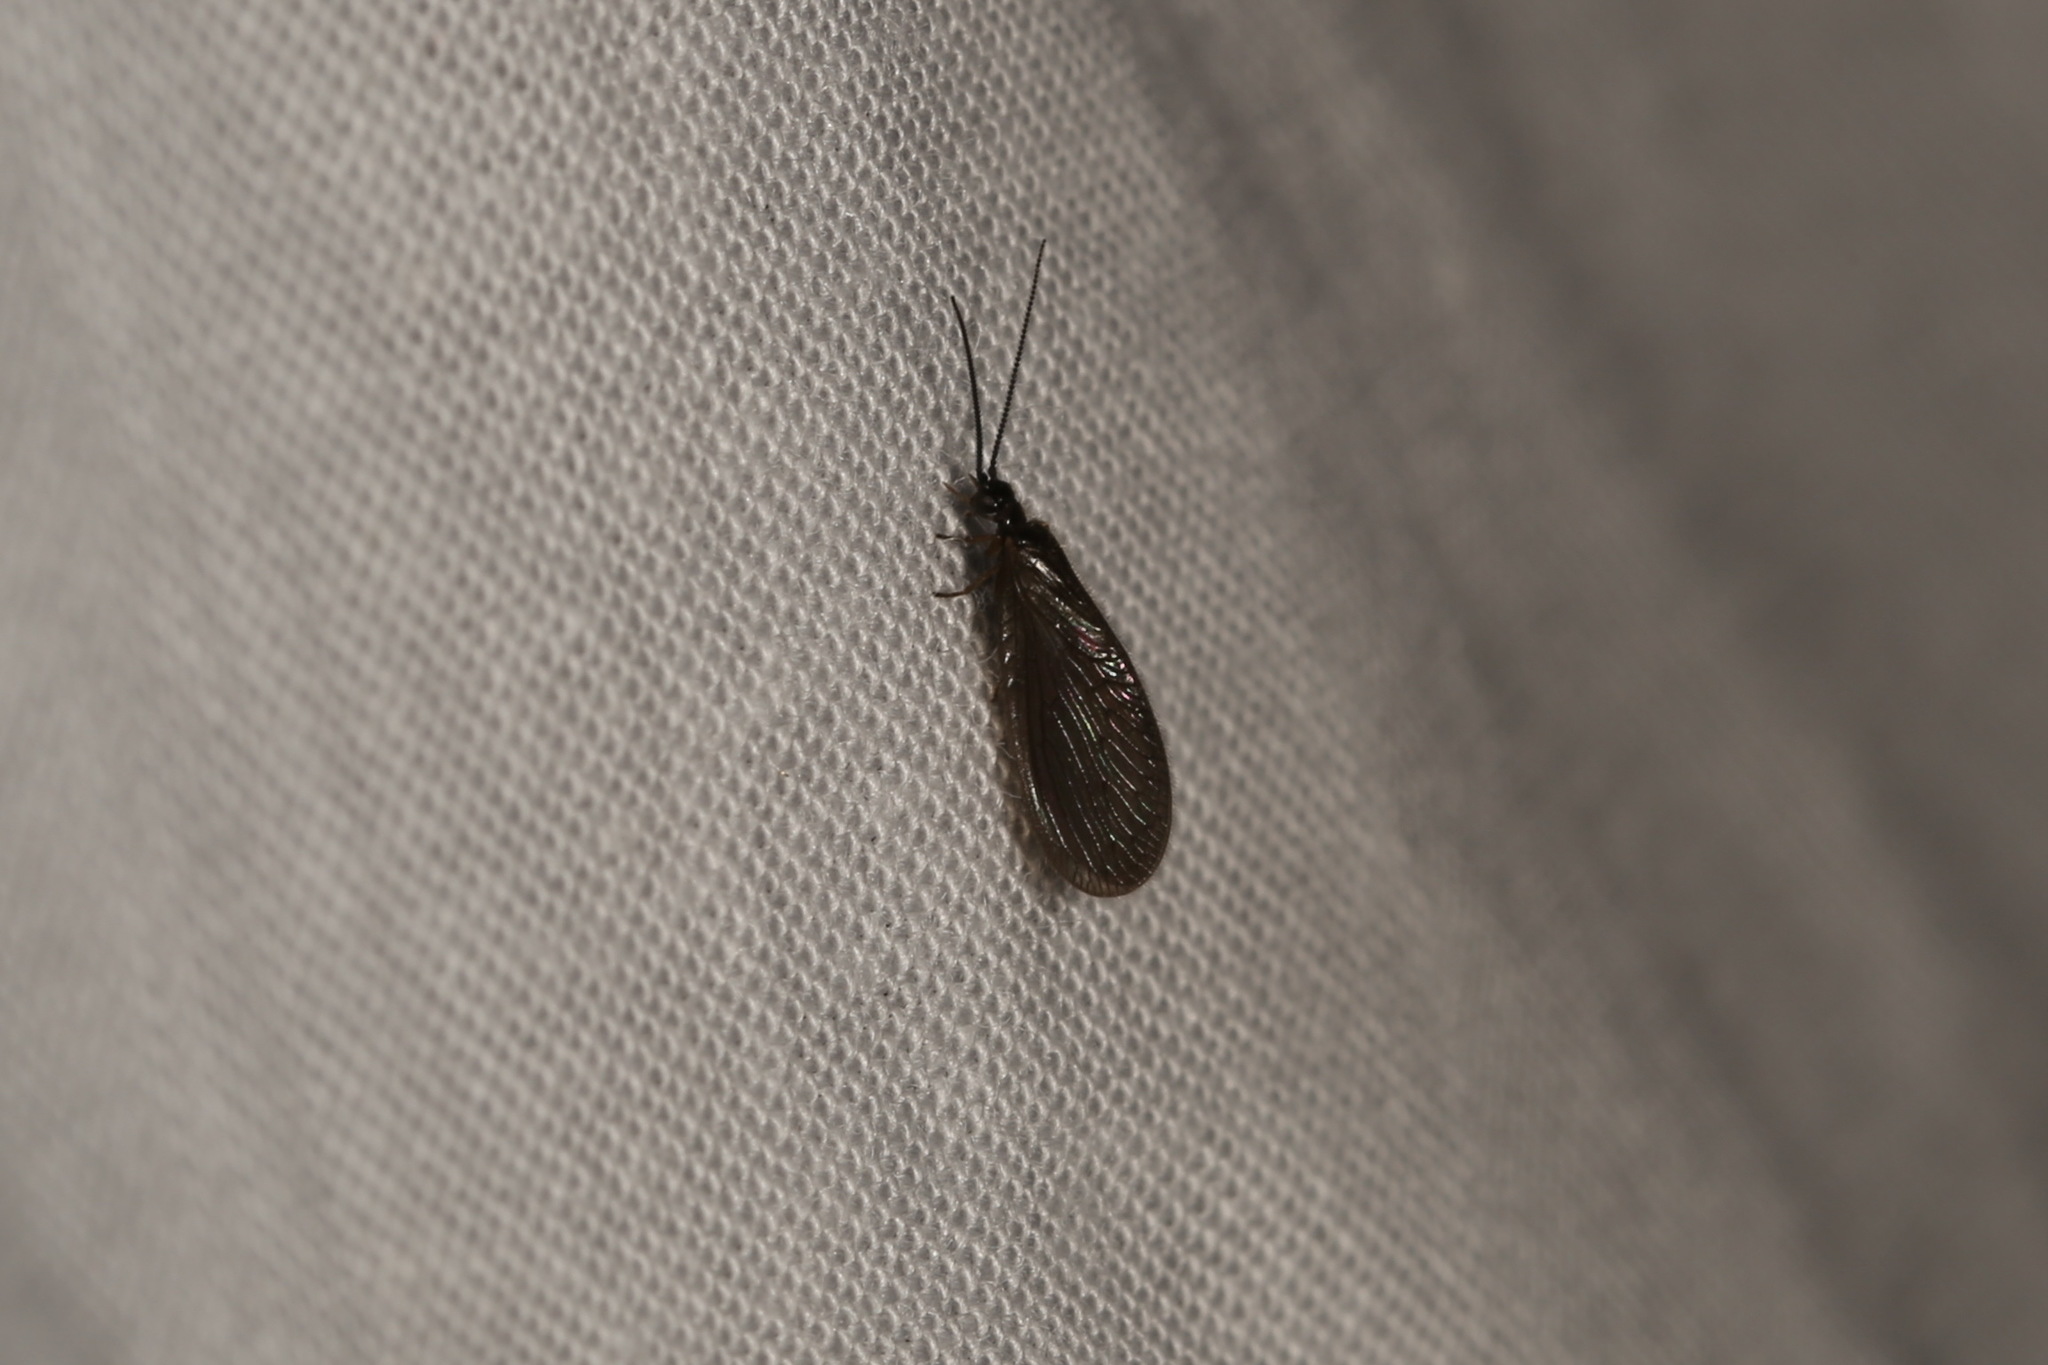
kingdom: Animalia
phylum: Arthropoda
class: Insecta
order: Neuroptera
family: Sisyridae
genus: Sisyra
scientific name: Sisyra nigra
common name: Black spongillafly
